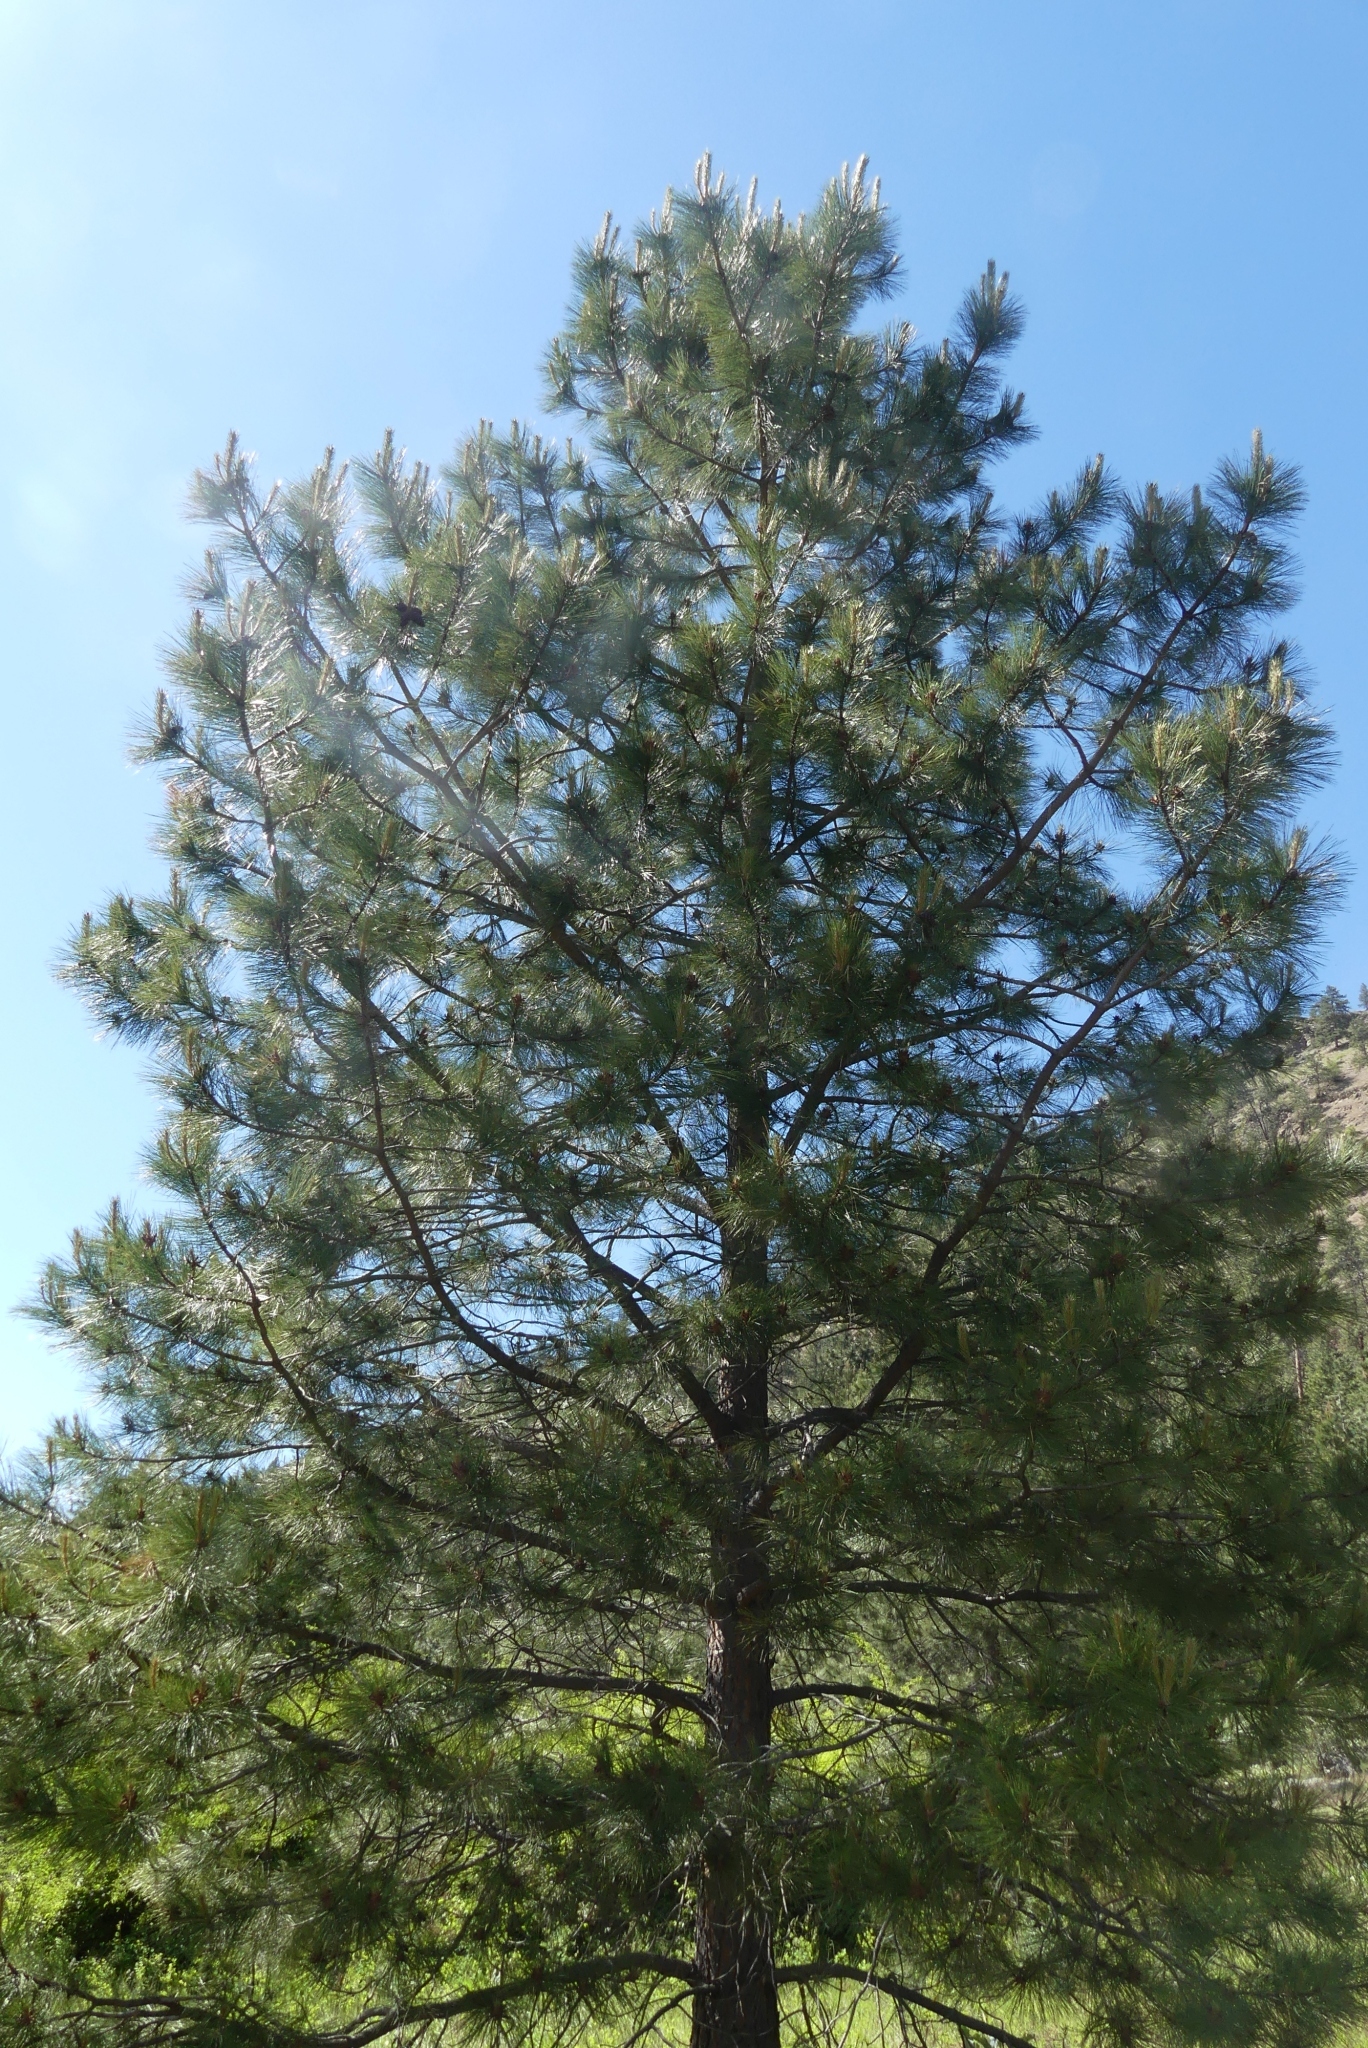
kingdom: Plantae
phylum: Tracheophyta
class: Pinopsida
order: Pinales
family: Pinaceae
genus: Pinus
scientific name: Pinus ponderosa
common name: Western yellow-pine
